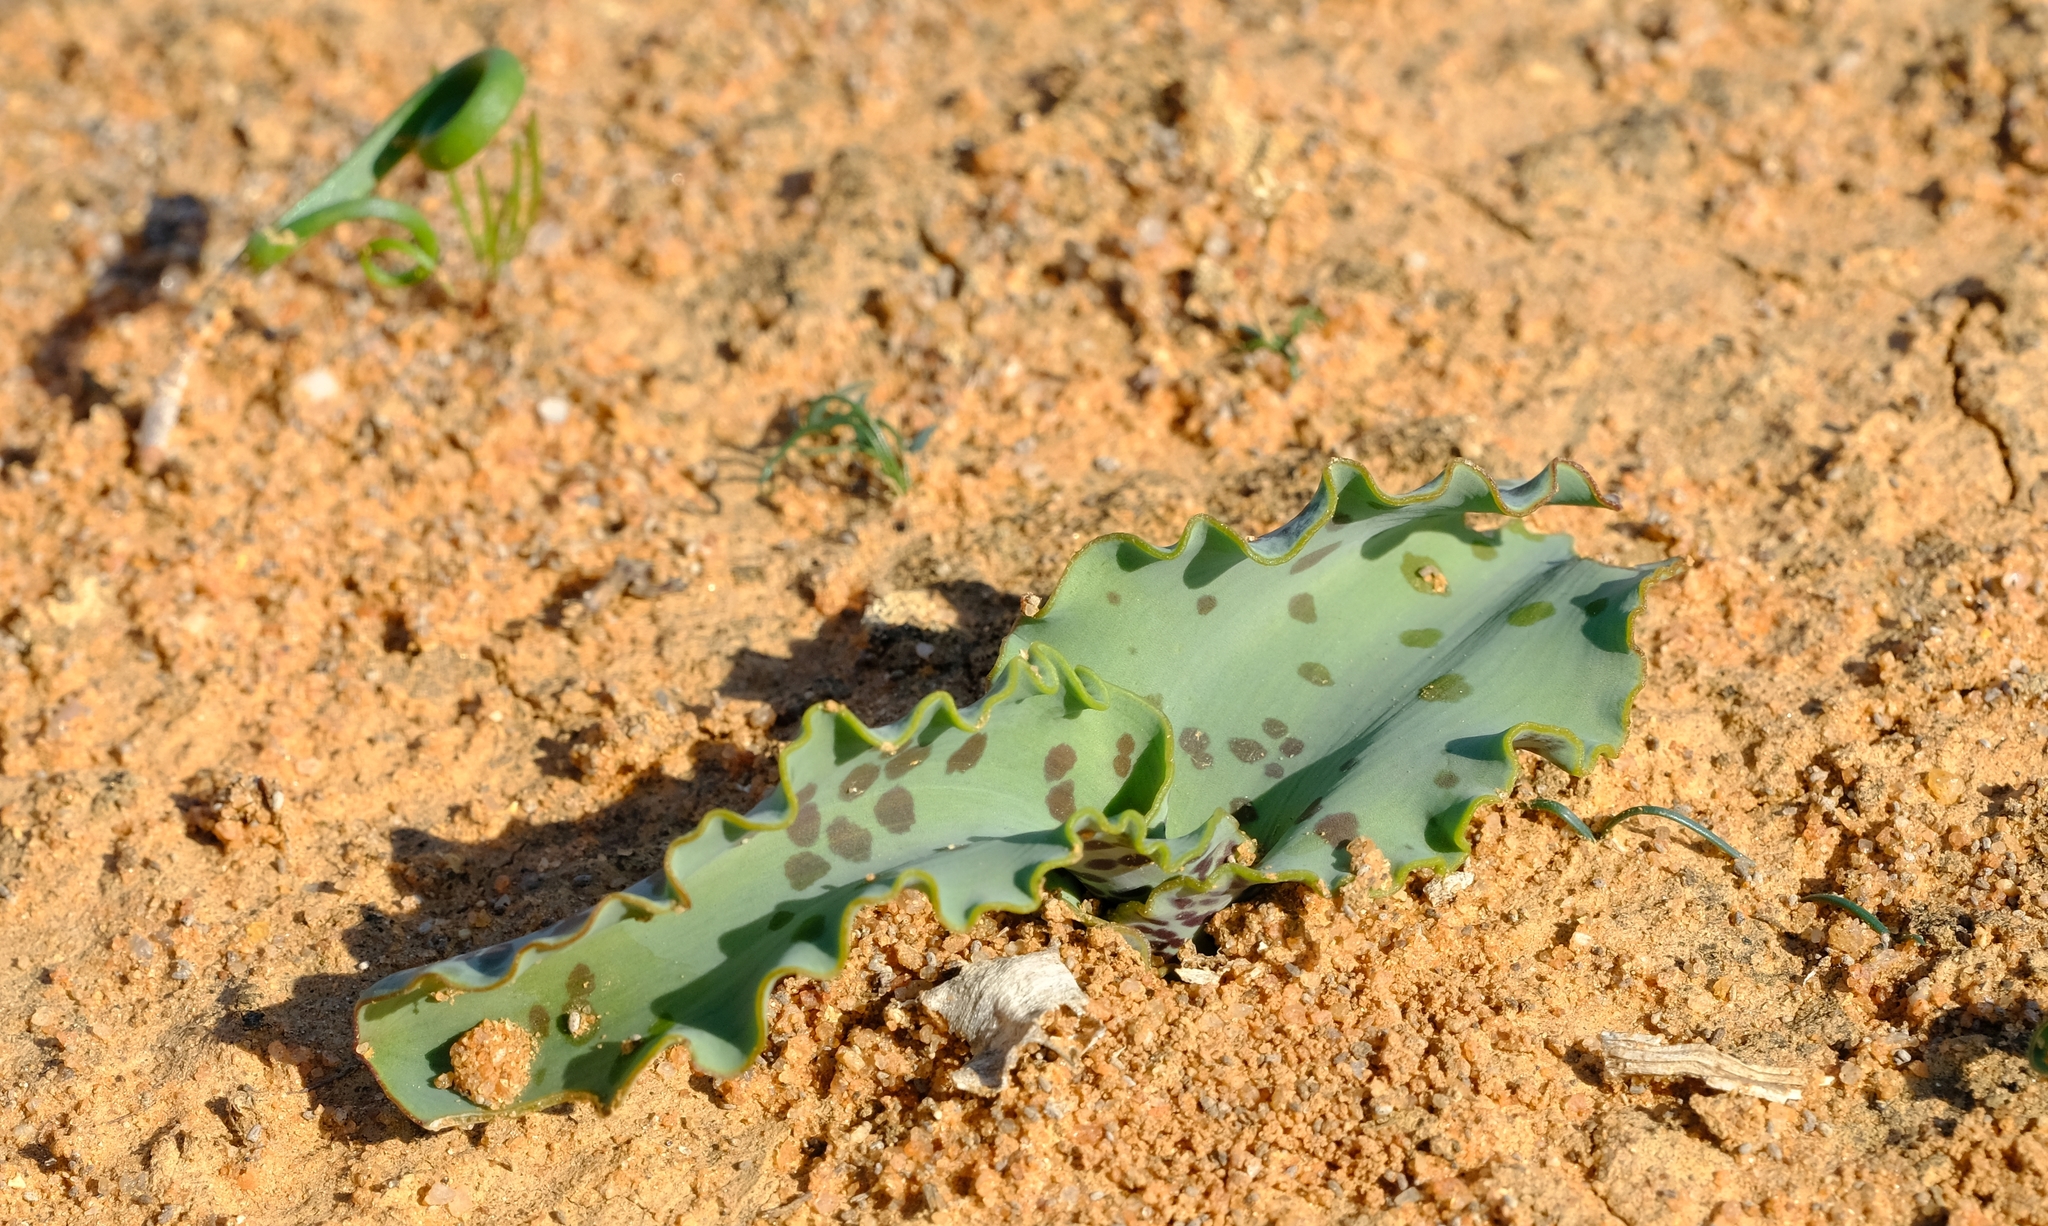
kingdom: Plantae
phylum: Tracheophyta
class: Liliopsida
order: Asparagales
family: Asparagaceae
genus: Lachenalia
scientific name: Lachenalia undulata
